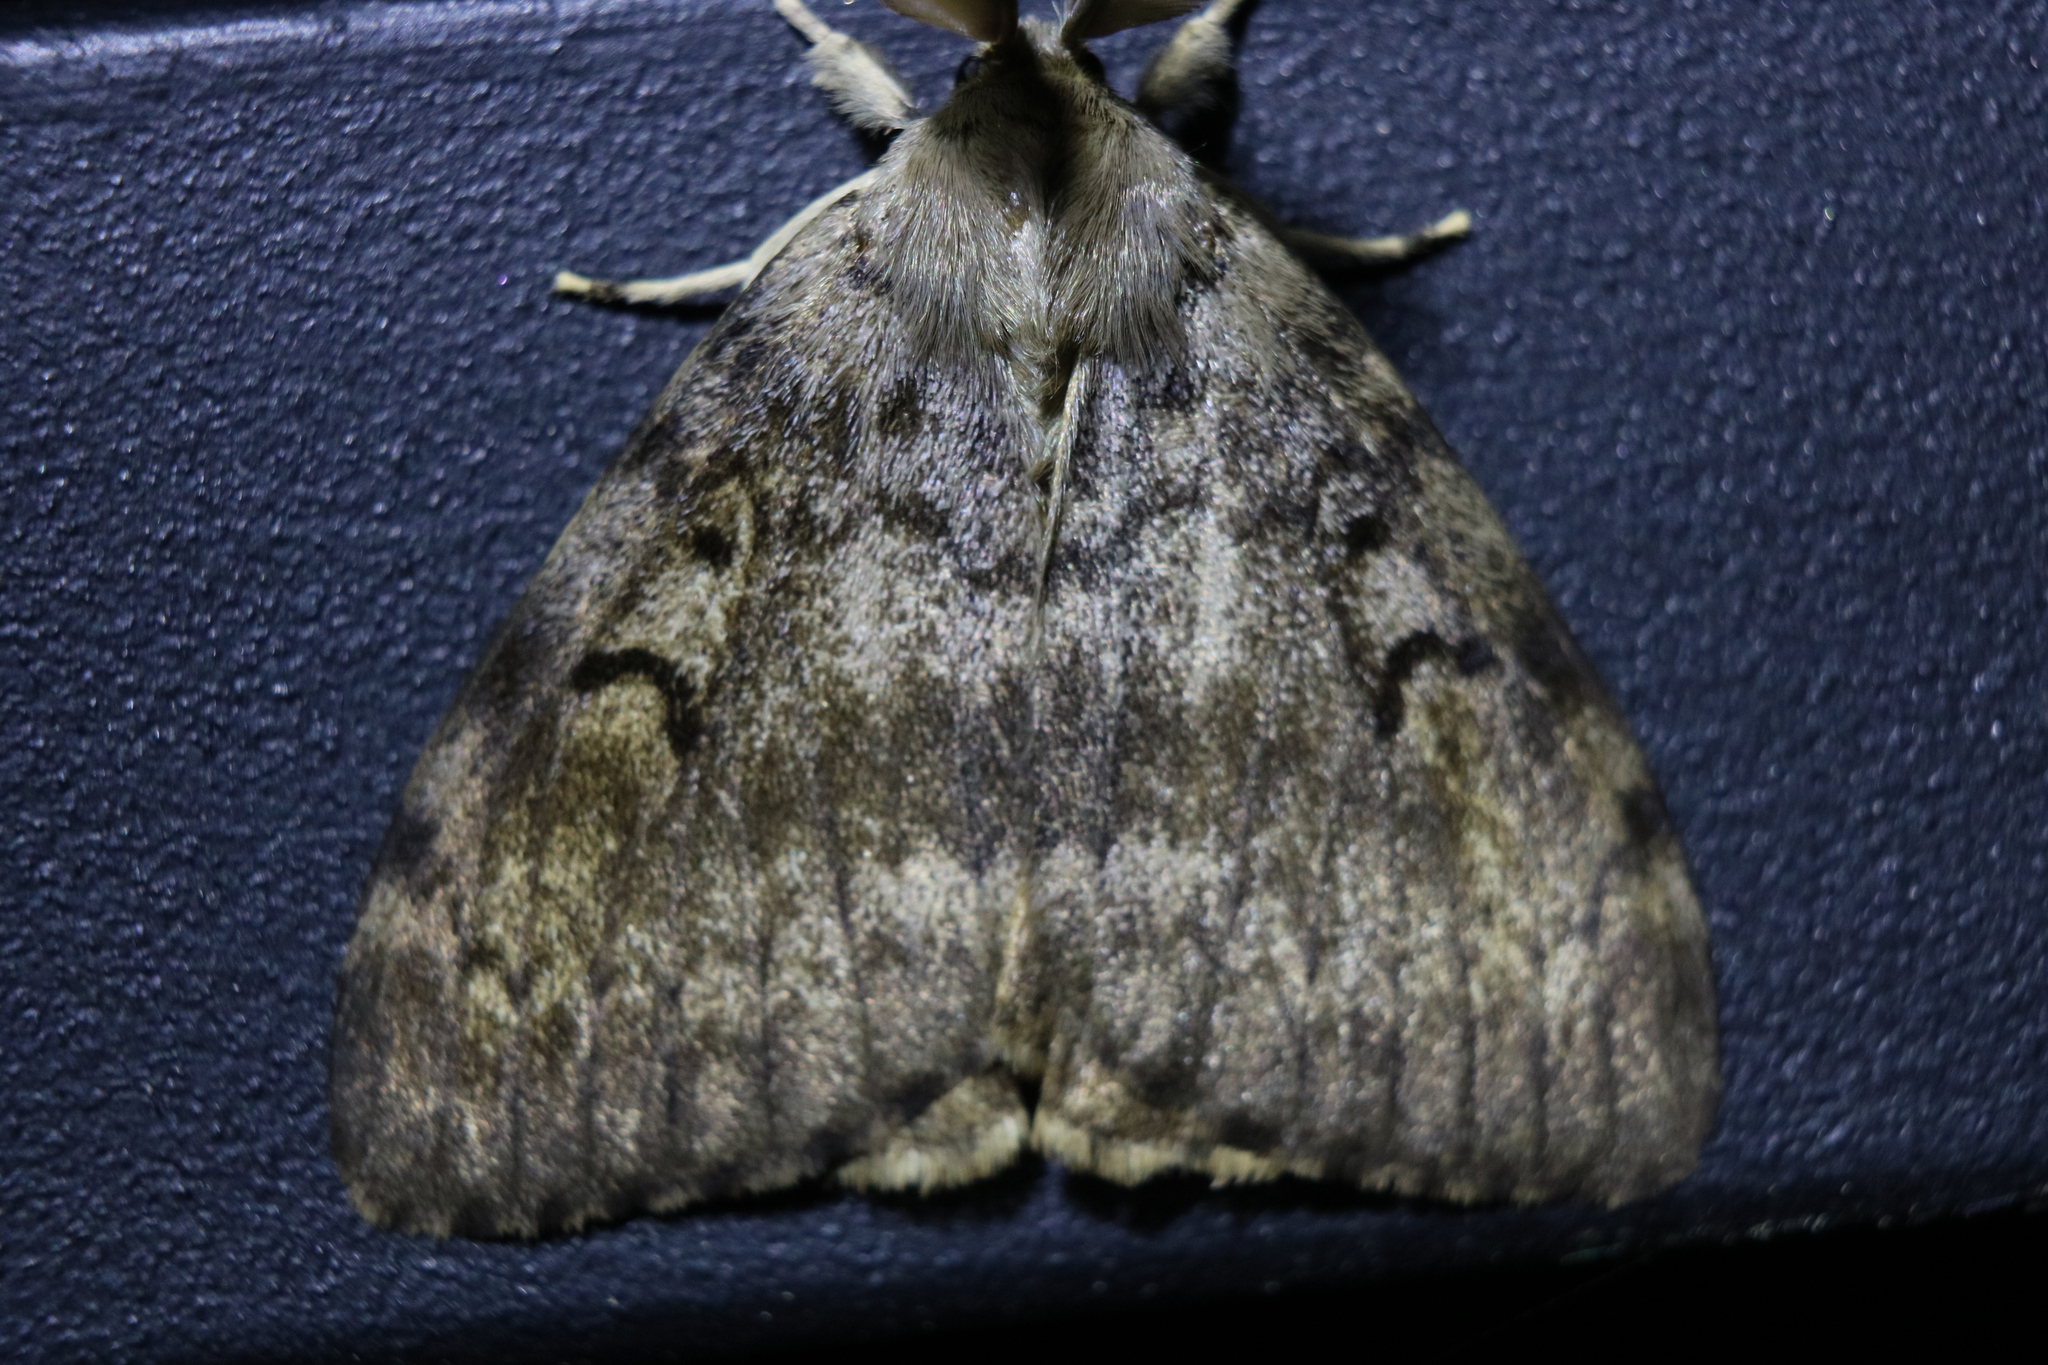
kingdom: Animalia
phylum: Arthropoda
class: Insecta
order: Lepidoptera
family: Erebidae
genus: Lymantria
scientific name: Lymantria dispar
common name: Gypsy moth
